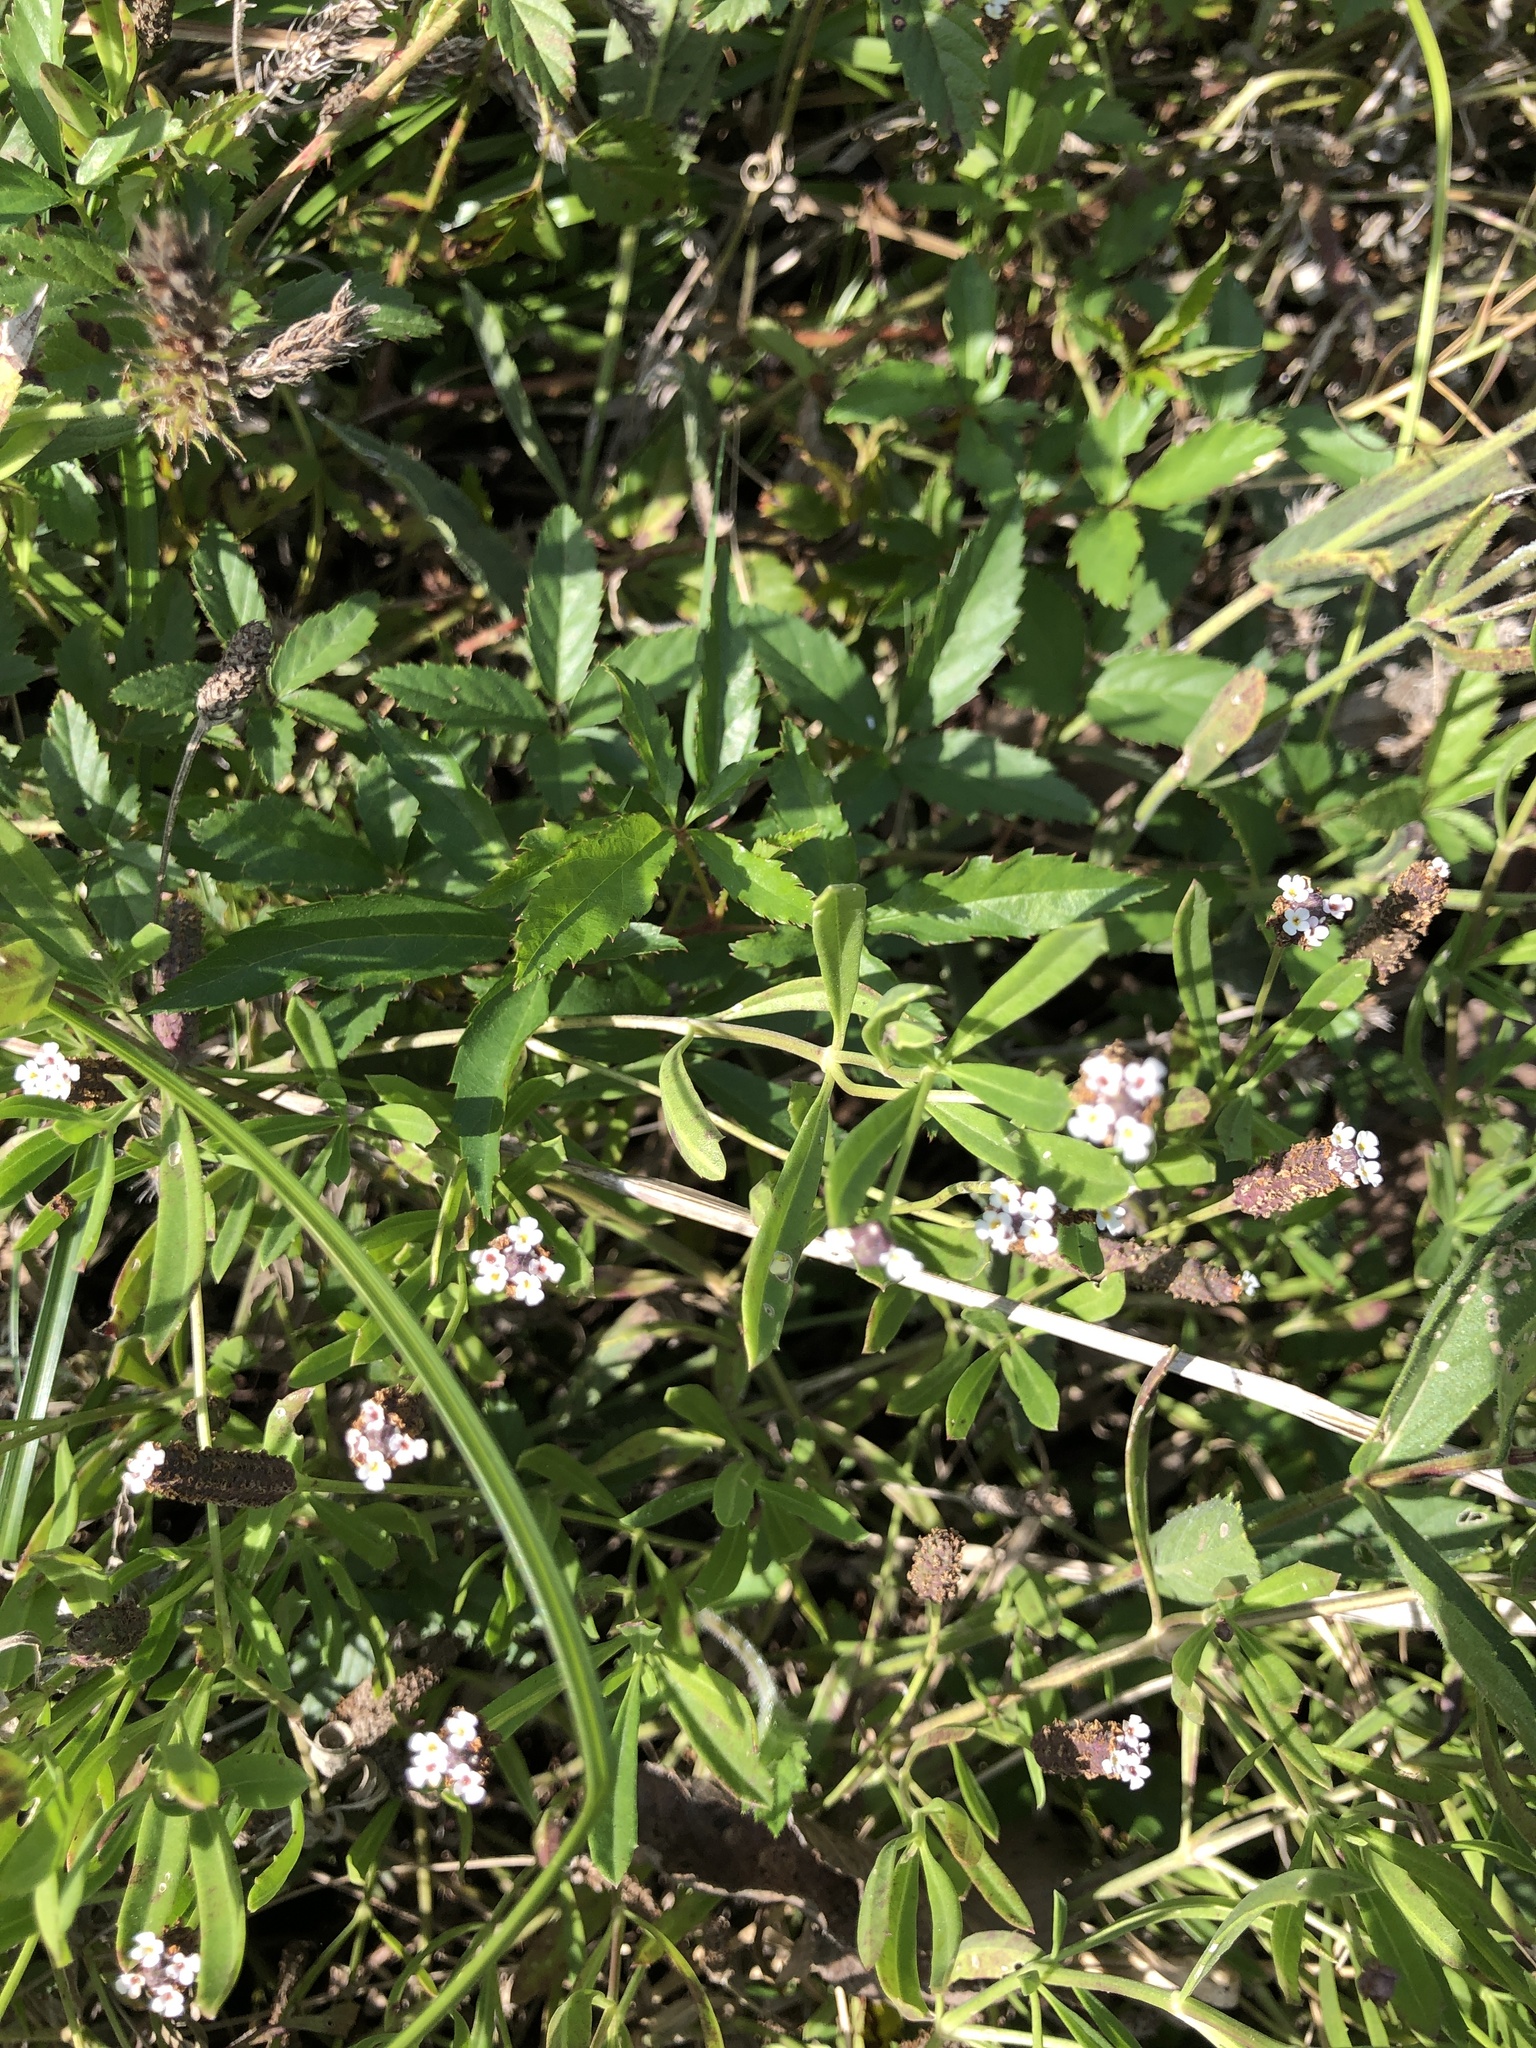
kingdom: Plantae
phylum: Tracheophyta
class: Magnoliopsida
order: Lamiales
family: Verbenaceae
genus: Phyla
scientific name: Phyla nodiflora
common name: Frogfruit
